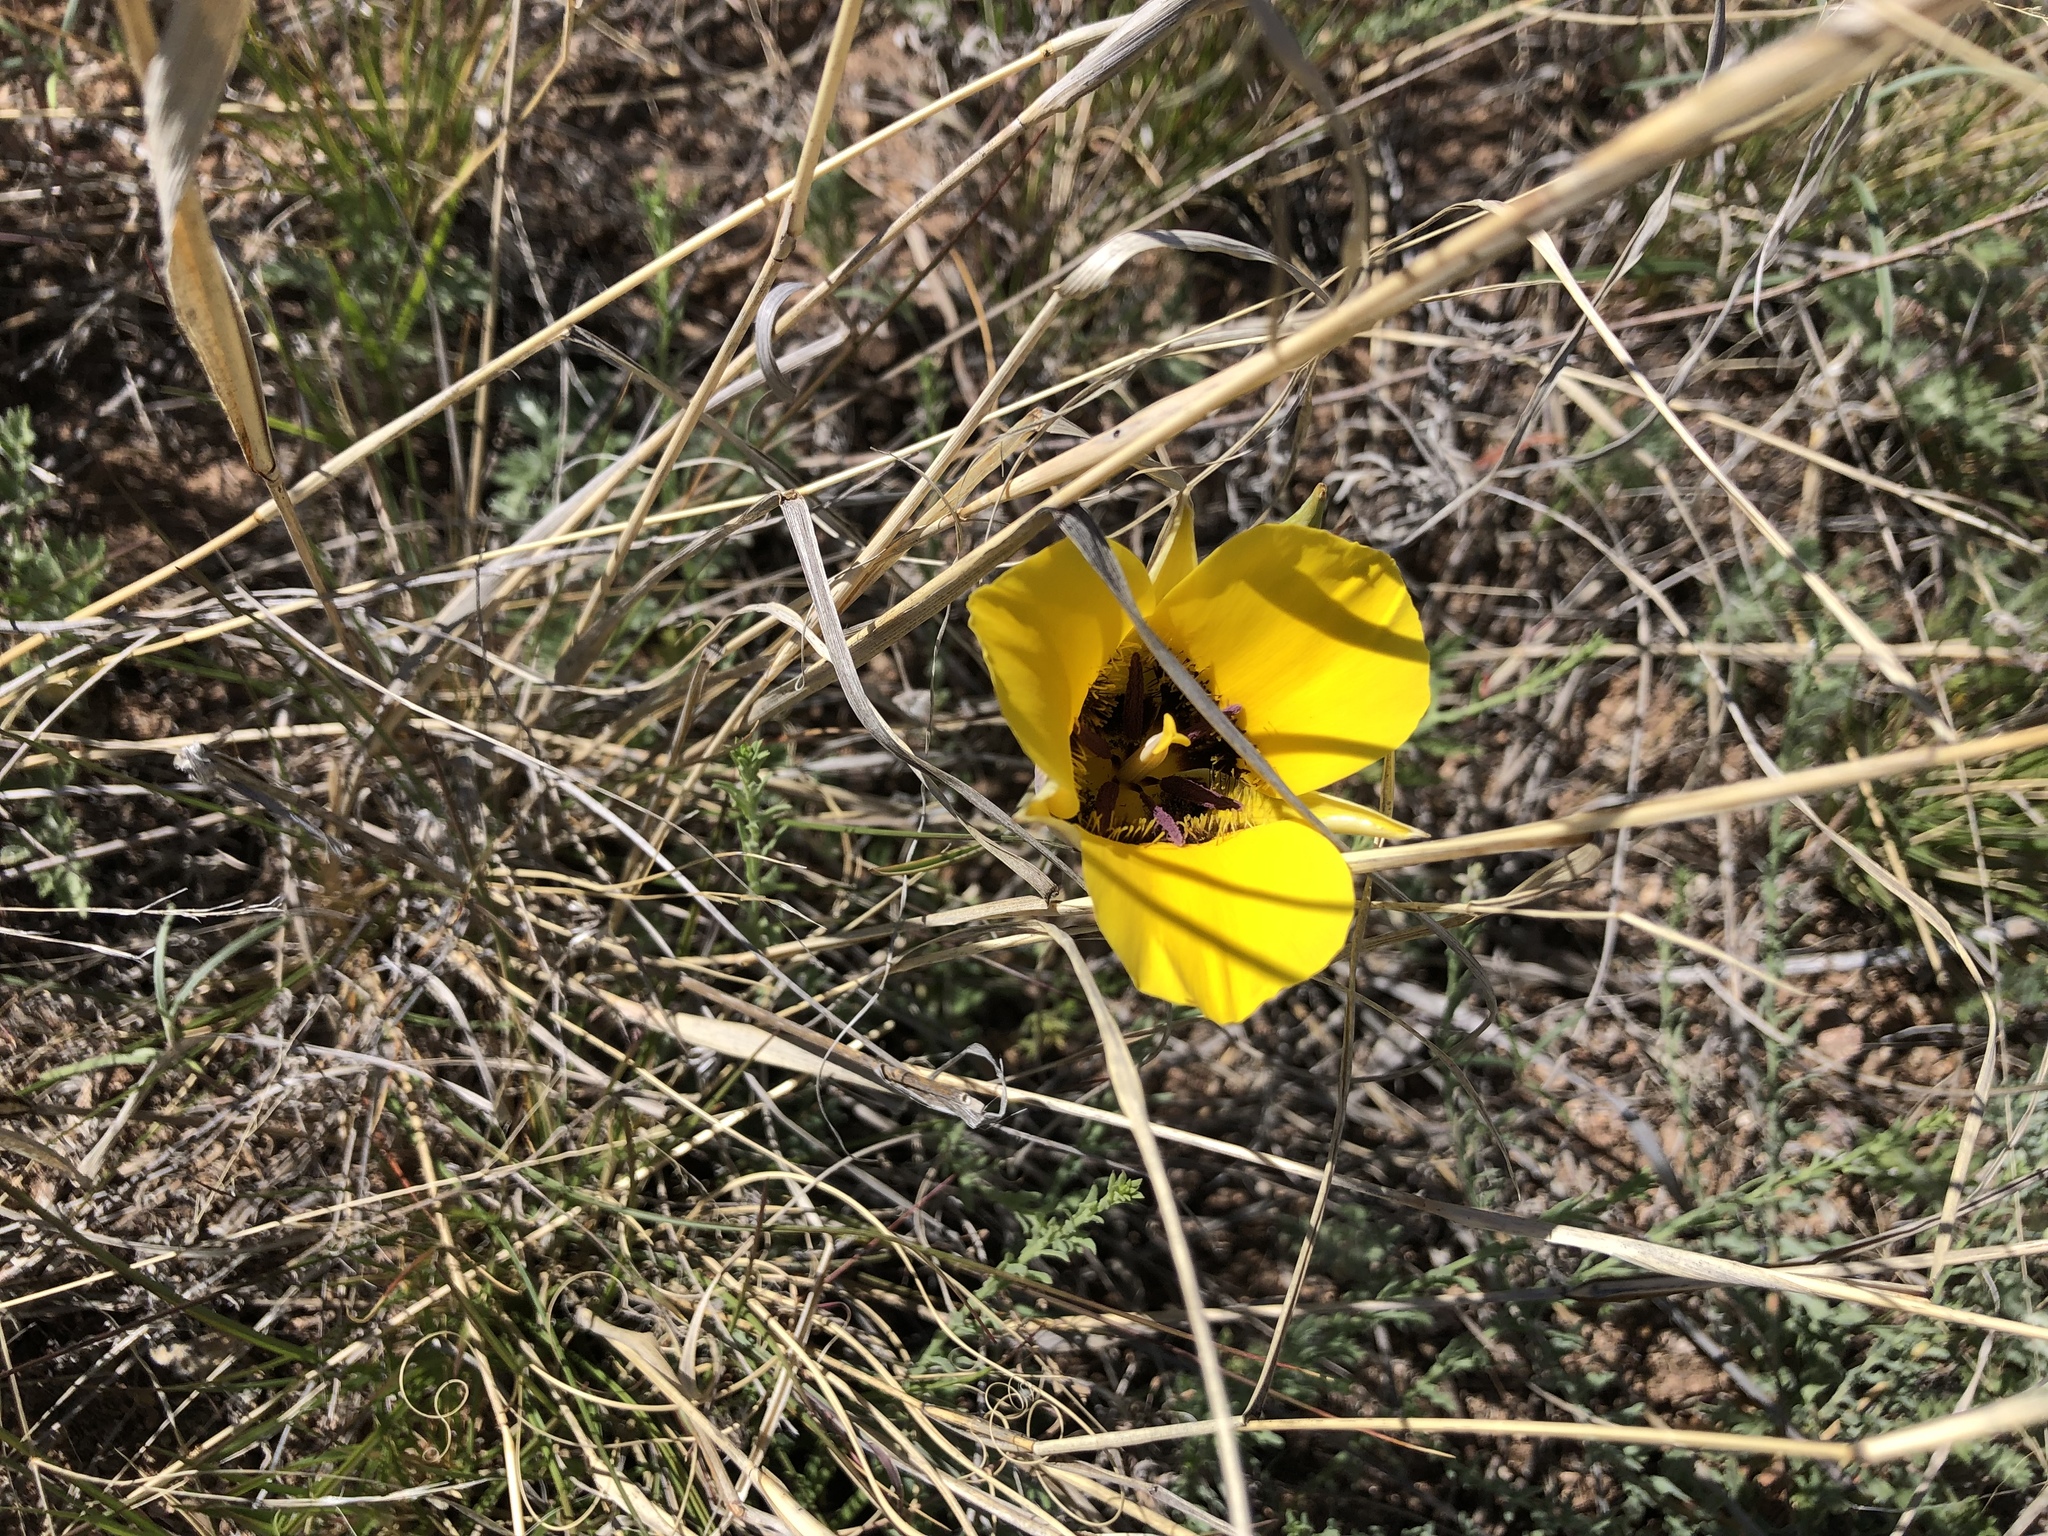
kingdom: Plantae
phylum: Tracheophyta
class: Liliopsida
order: Liliales
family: Liliaceae
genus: Calochortus
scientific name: Calochortus kennedyi
